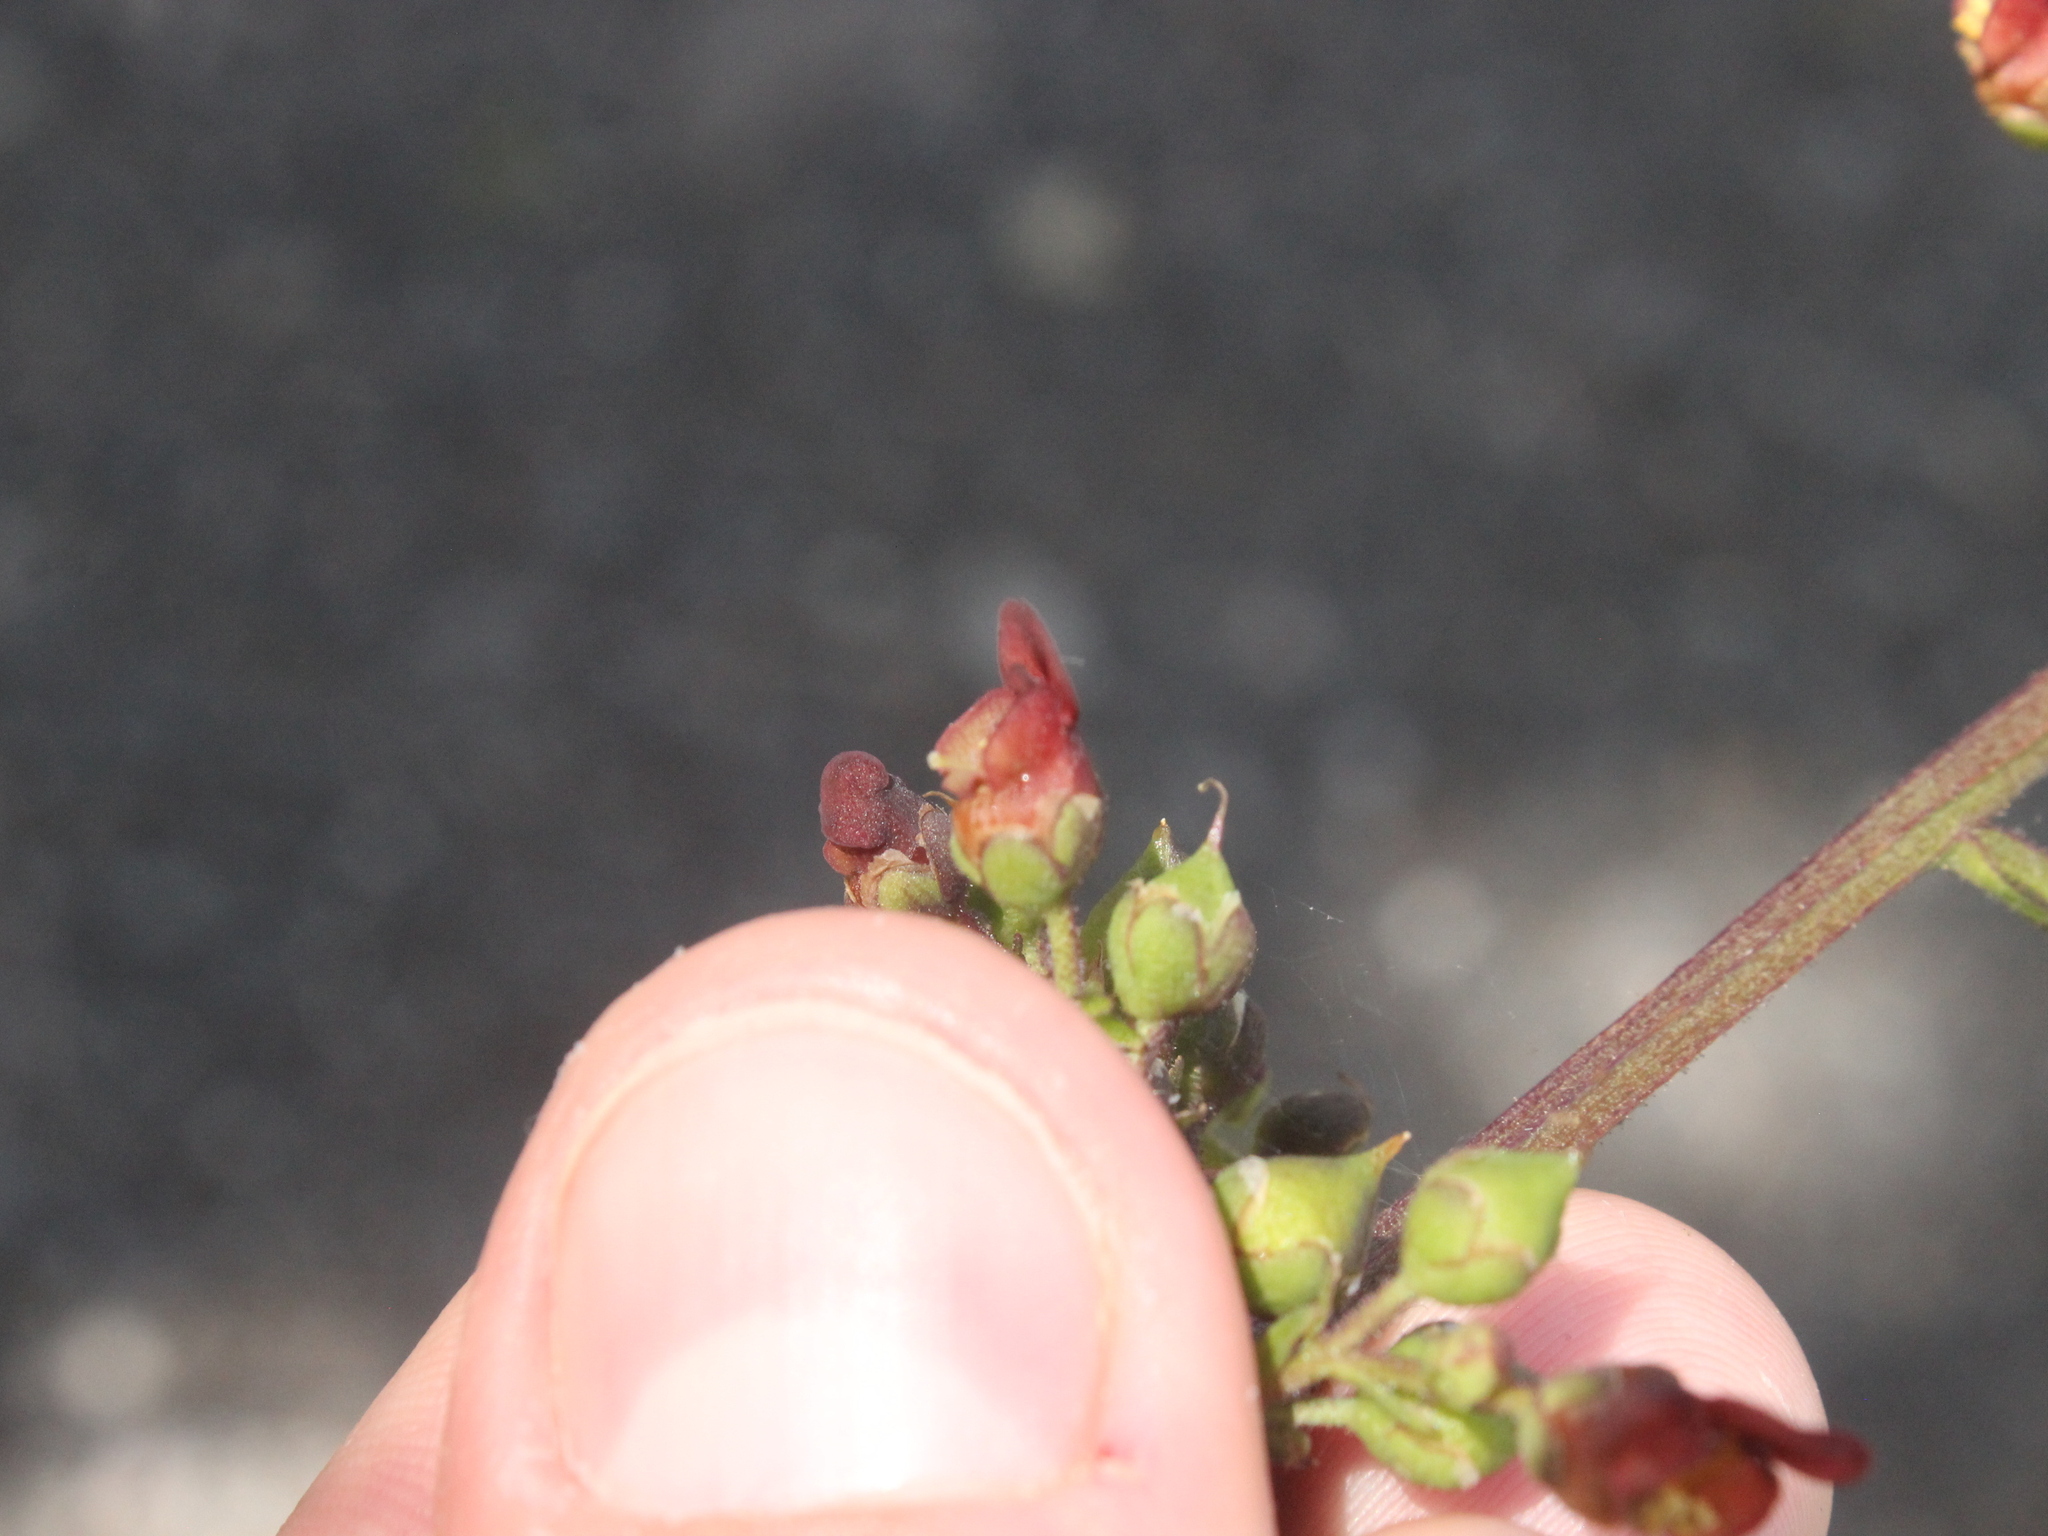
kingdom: Plantae
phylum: Tracheophyta
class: Magnoliopsida
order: Lamiales
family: Scrophulariaceae
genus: Scrophularia
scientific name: Scrophularia auriculata
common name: Water betony
